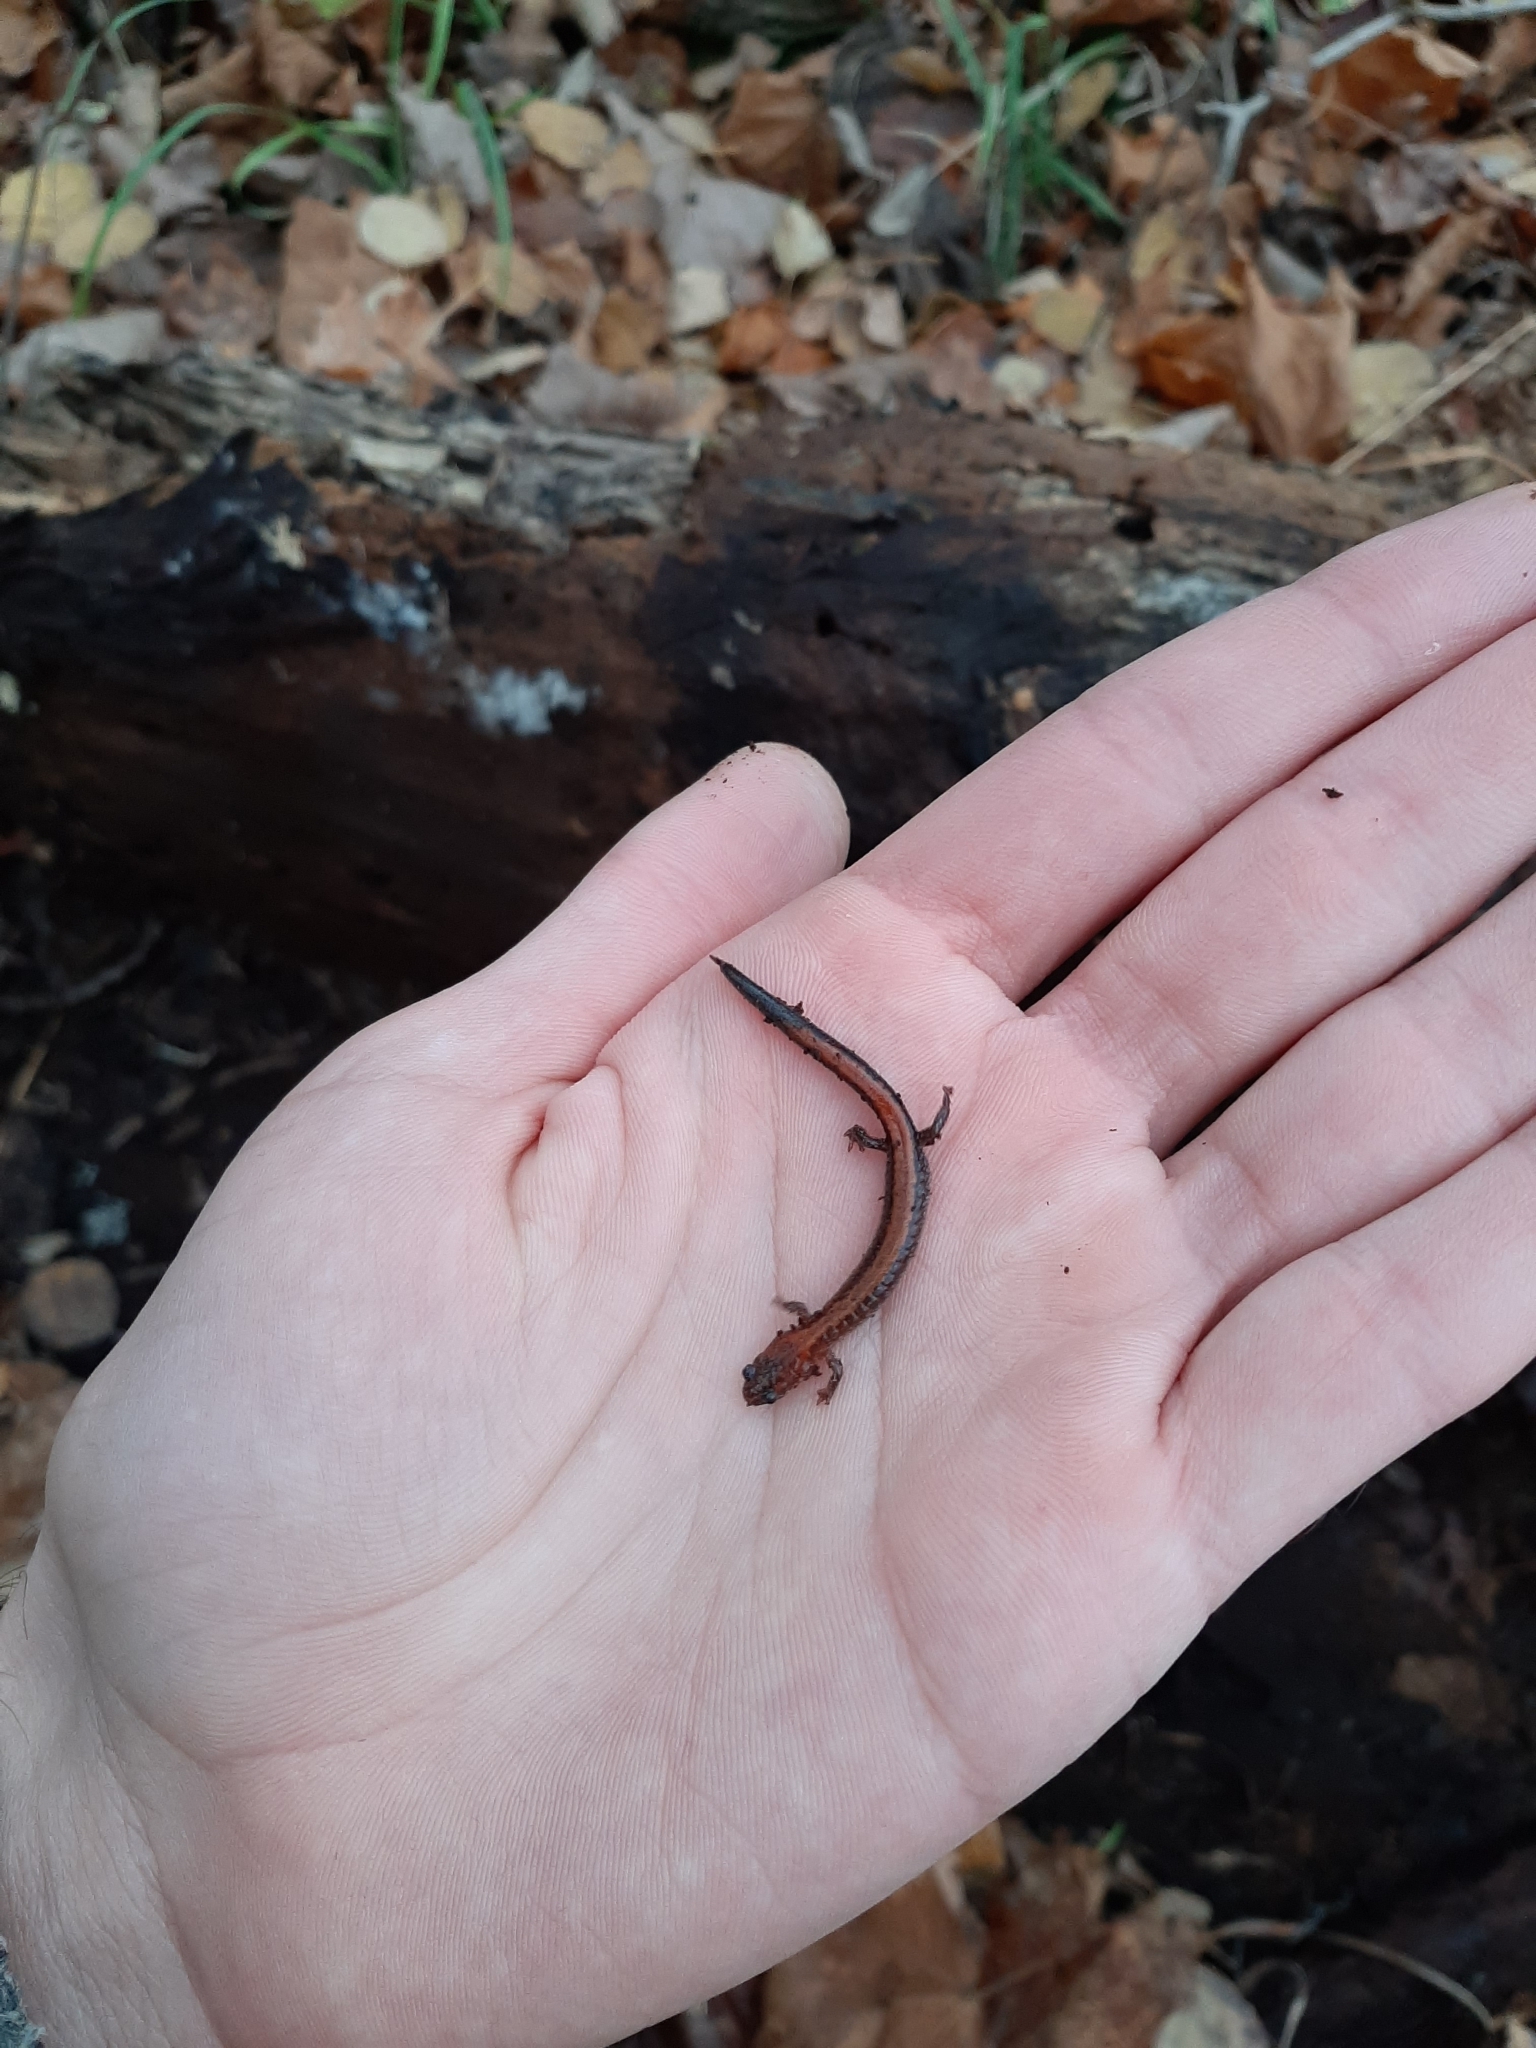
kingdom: Animalia
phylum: Chordata
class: Amphibia
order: Caudata
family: Plethodontidae
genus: Plethodon
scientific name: Plethodon cinereus
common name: Redback salamander
